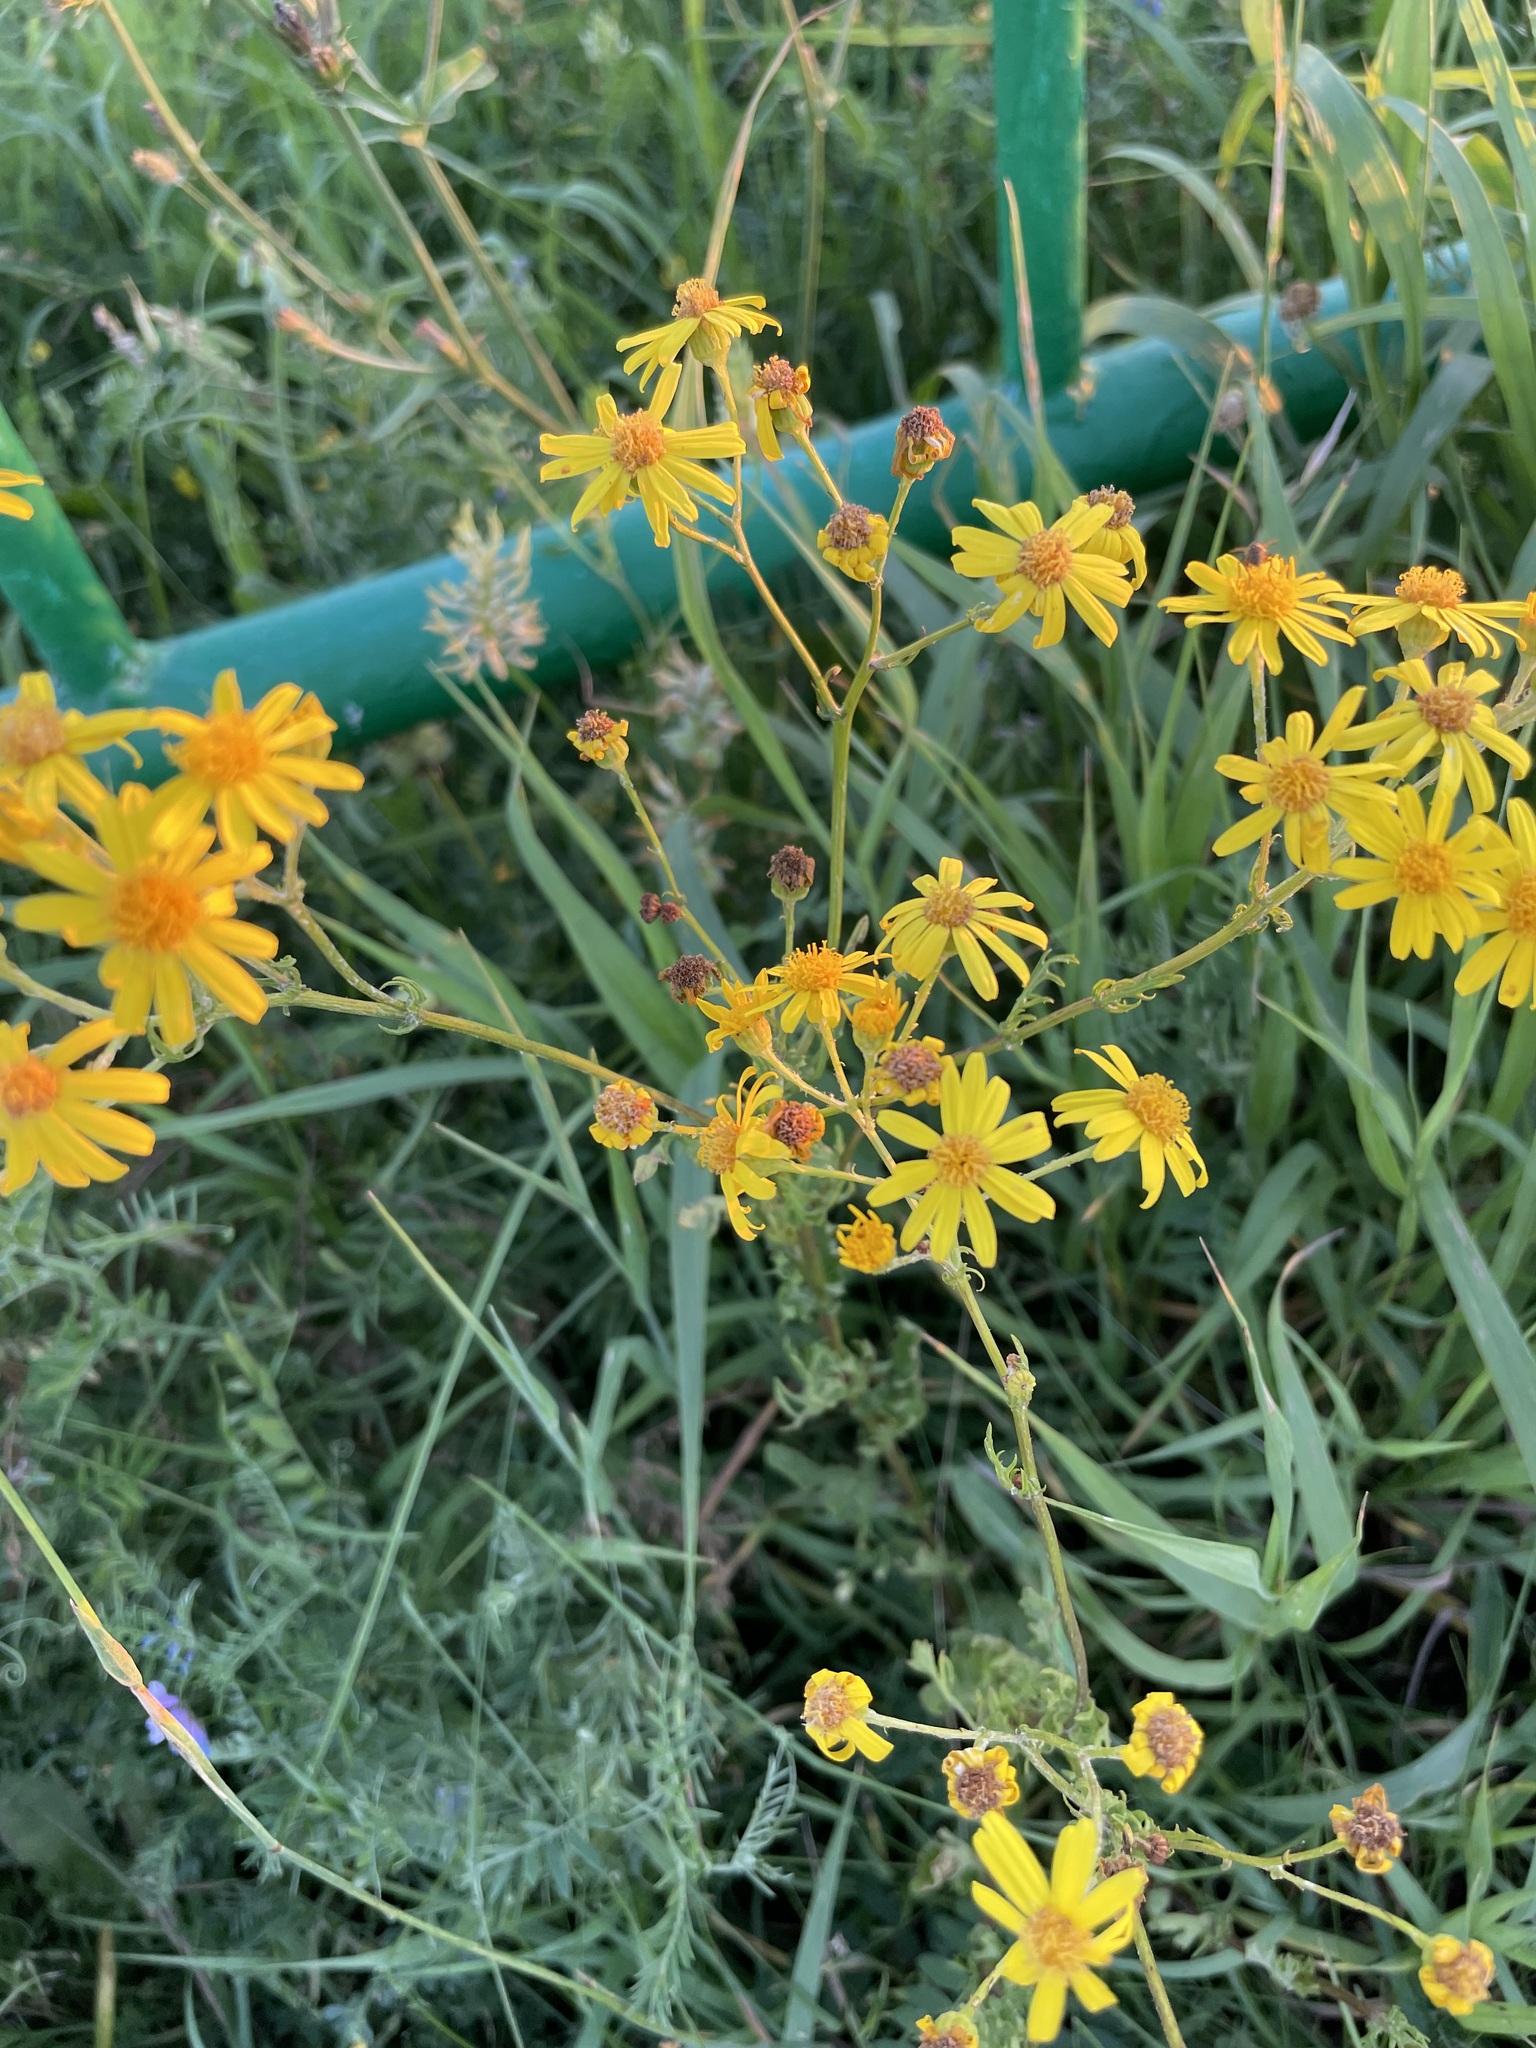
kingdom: Plantae
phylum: Tracheophyta
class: Magnoliopsida
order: Asterales
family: Asteraceae
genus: Jacobaea
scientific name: Jacobaea vulgaris
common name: Stinking willie
